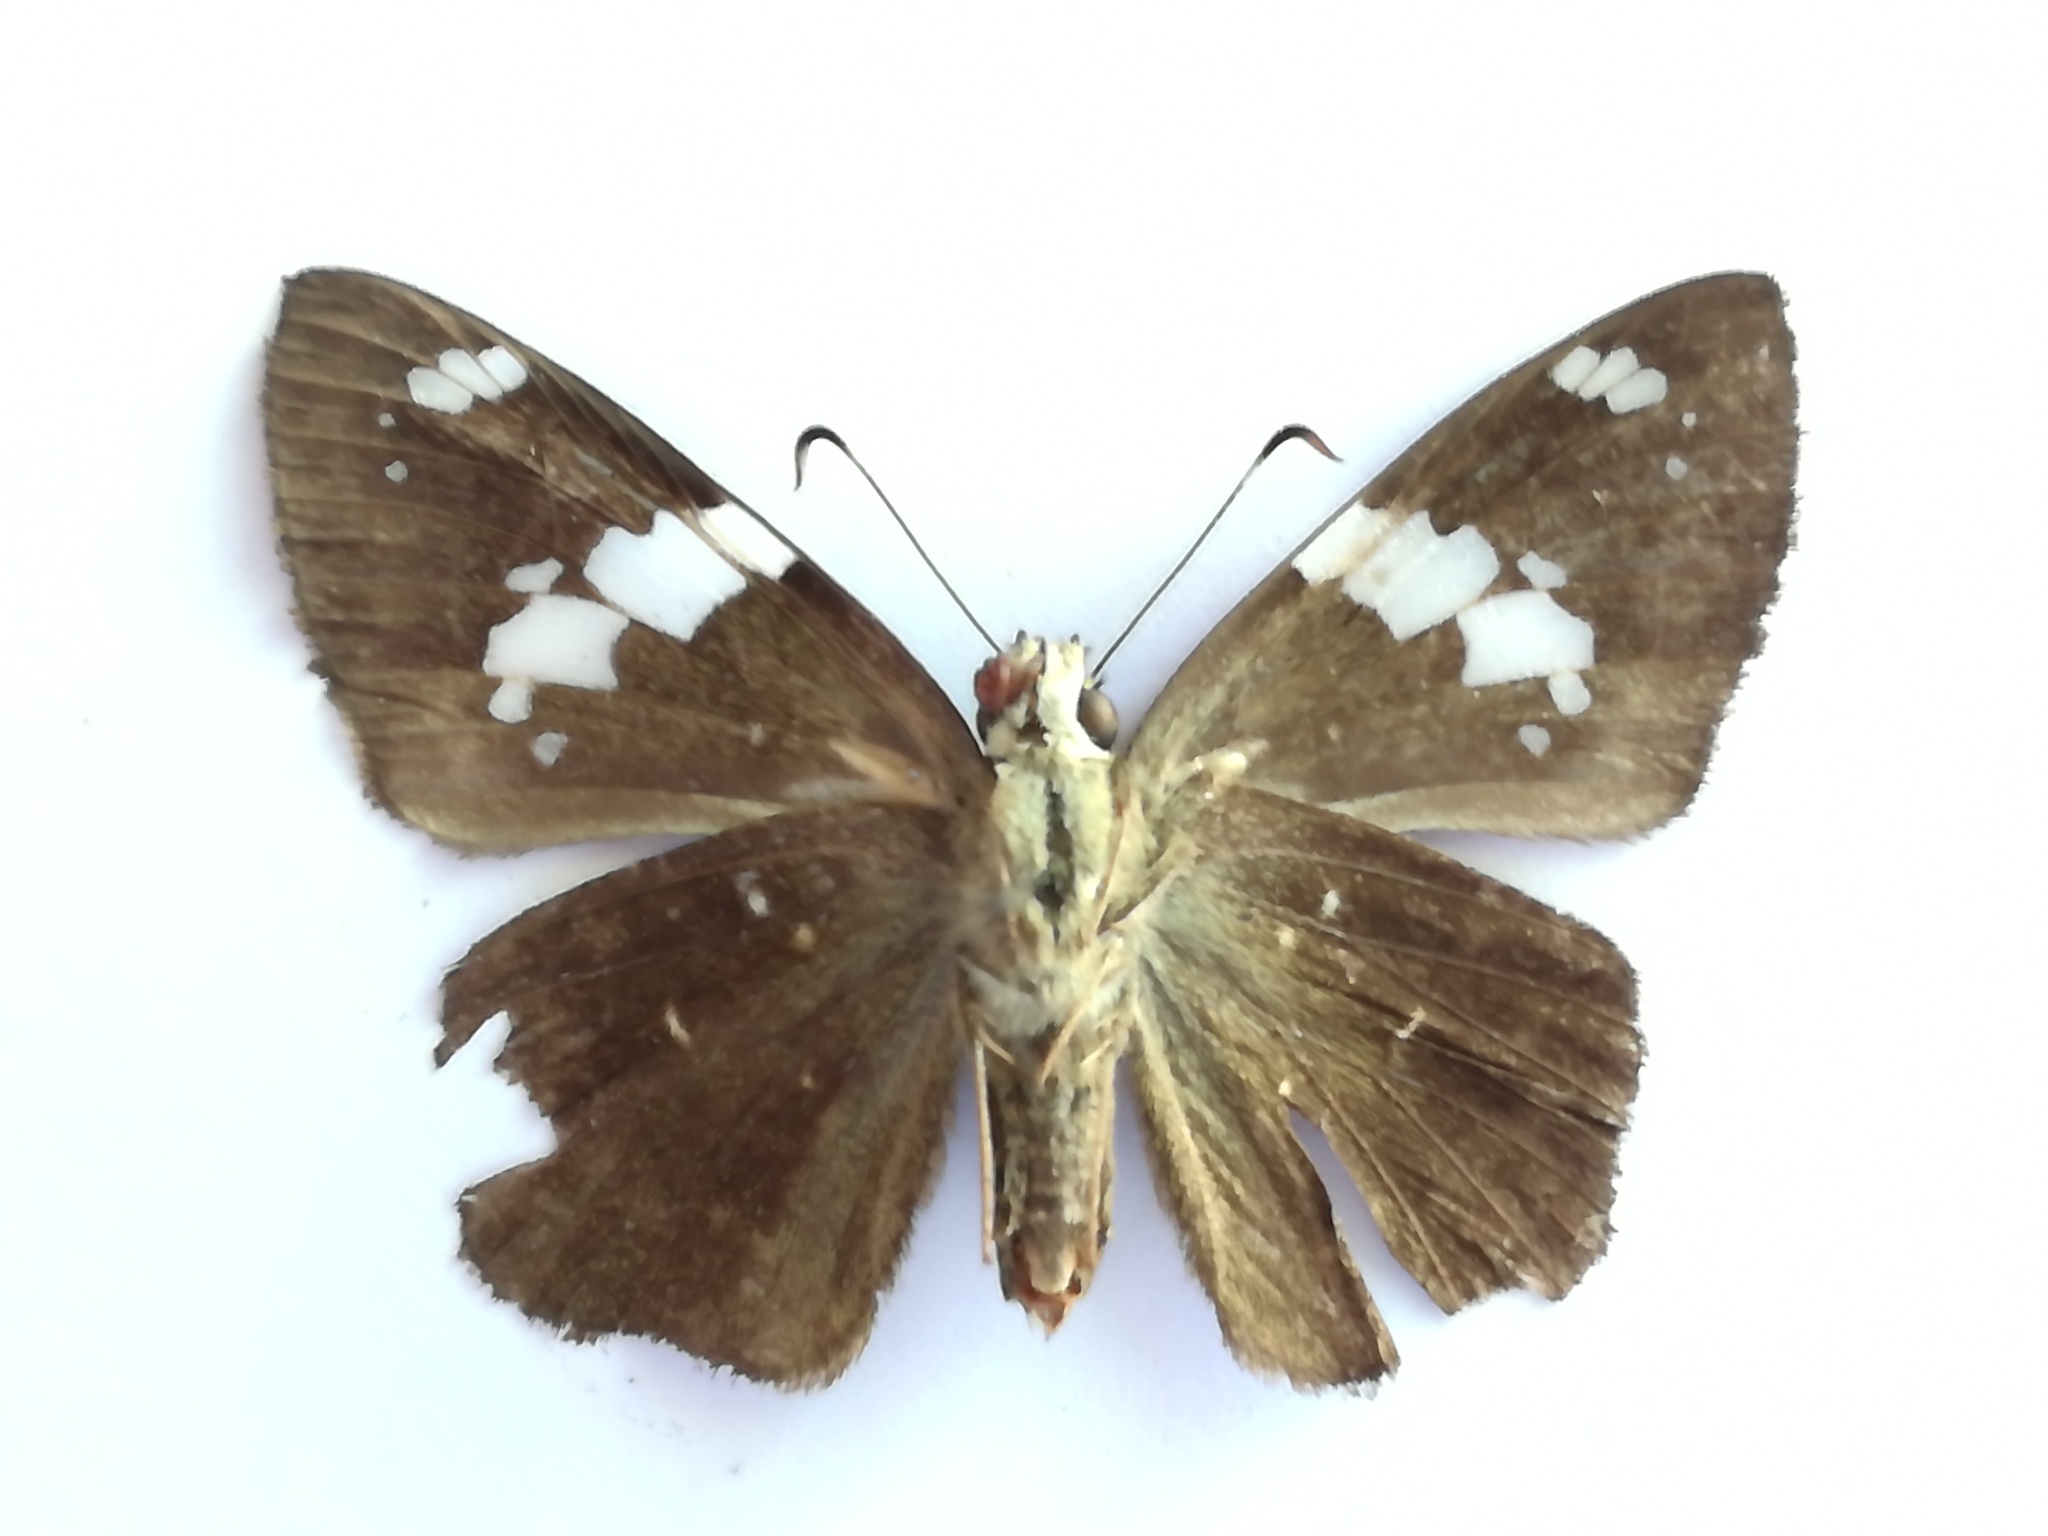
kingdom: Animalia
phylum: Arthropoda
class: Insecta
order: Lepidoptera
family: Hesperiidae
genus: Celaenorrhinus
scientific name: Celaenorrhinus similis
